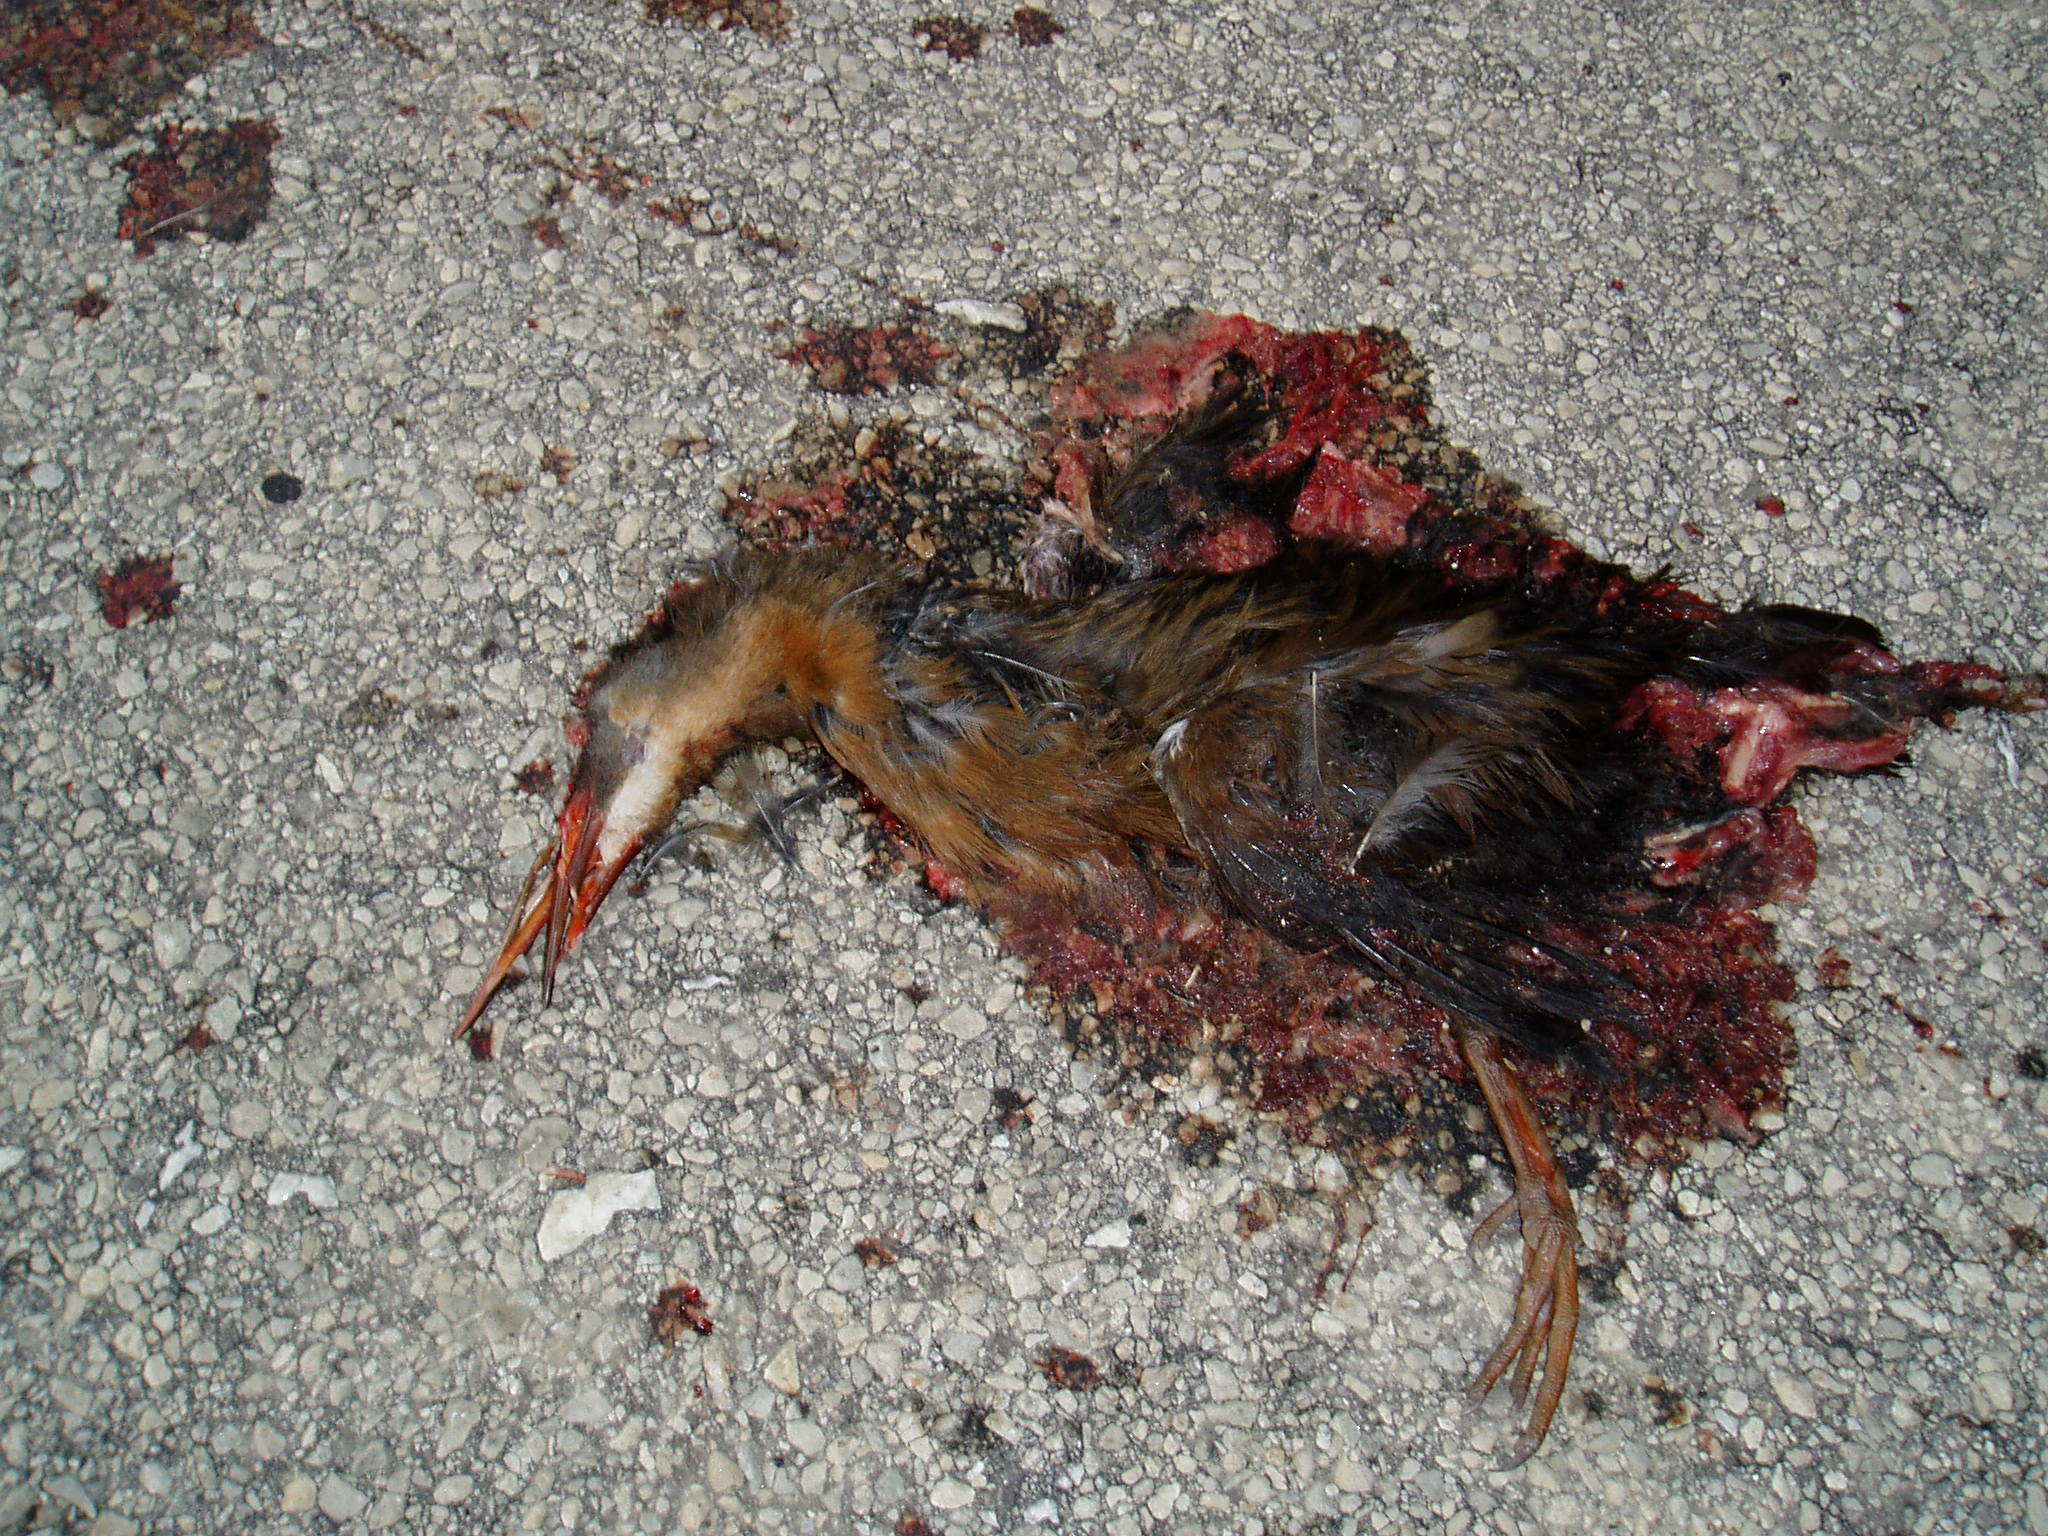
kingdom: Animalia
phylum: Chordata
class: Aves
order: Gruiformes
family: Rallidae
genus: Rallus
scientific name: Rallus limicola
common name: Virginia rail
